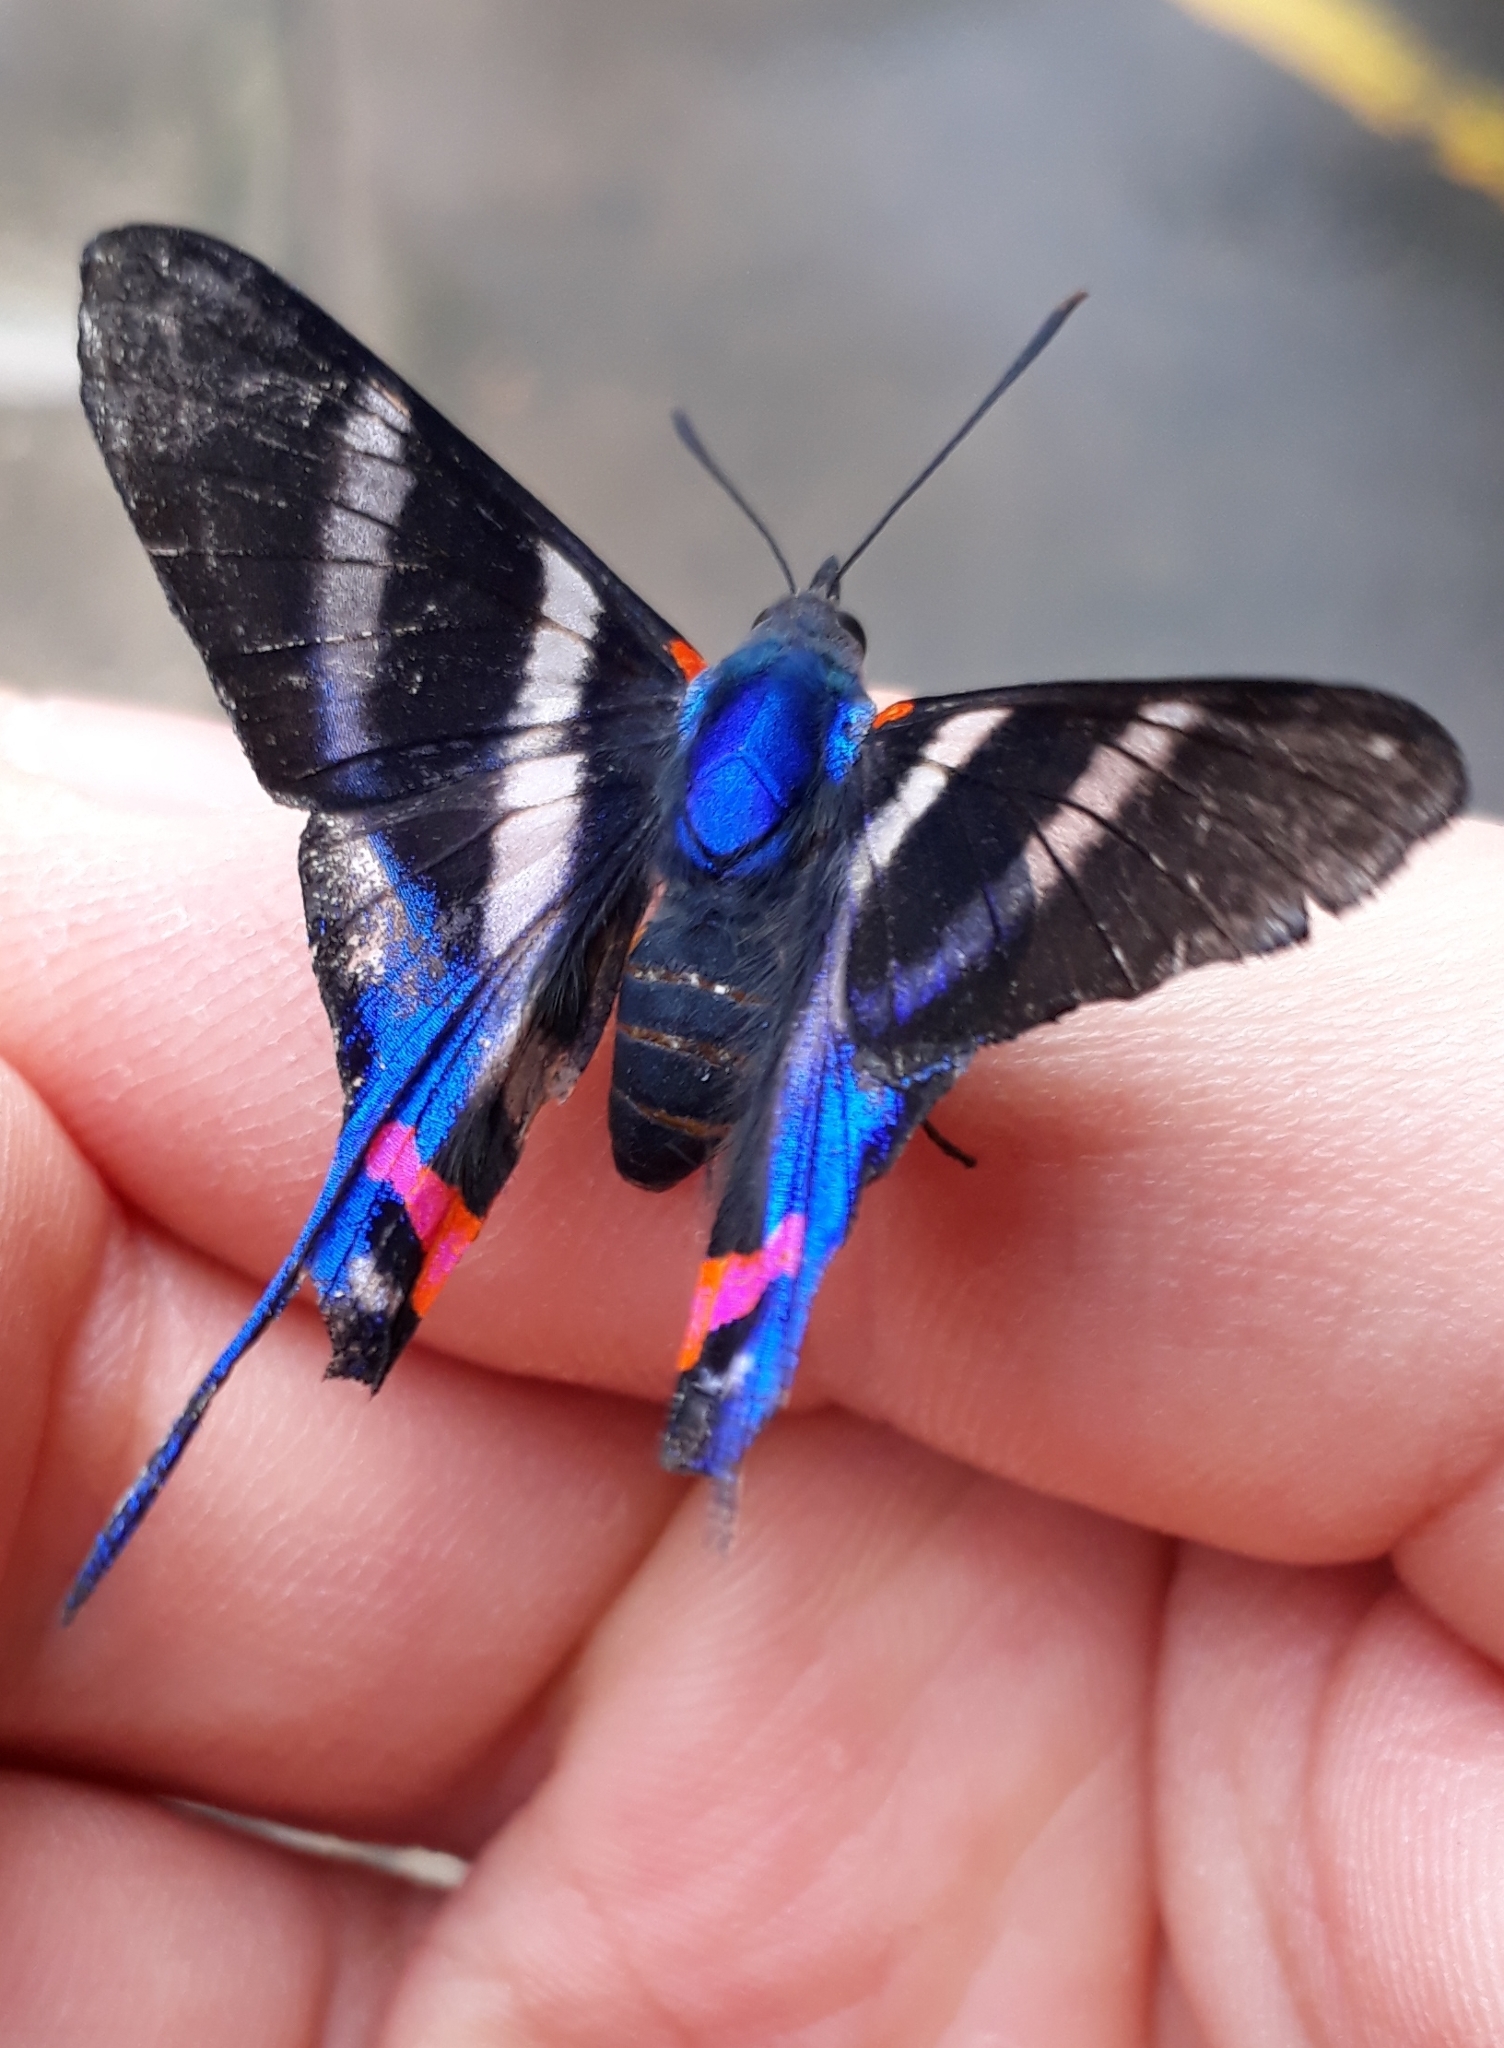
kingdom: Animalia
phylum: Arthropoda
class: Insecta
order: Lepidoptera
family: Riodinidae
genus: Rhetus
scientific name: Rhetus arcius
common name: Long-tailed metalmark
